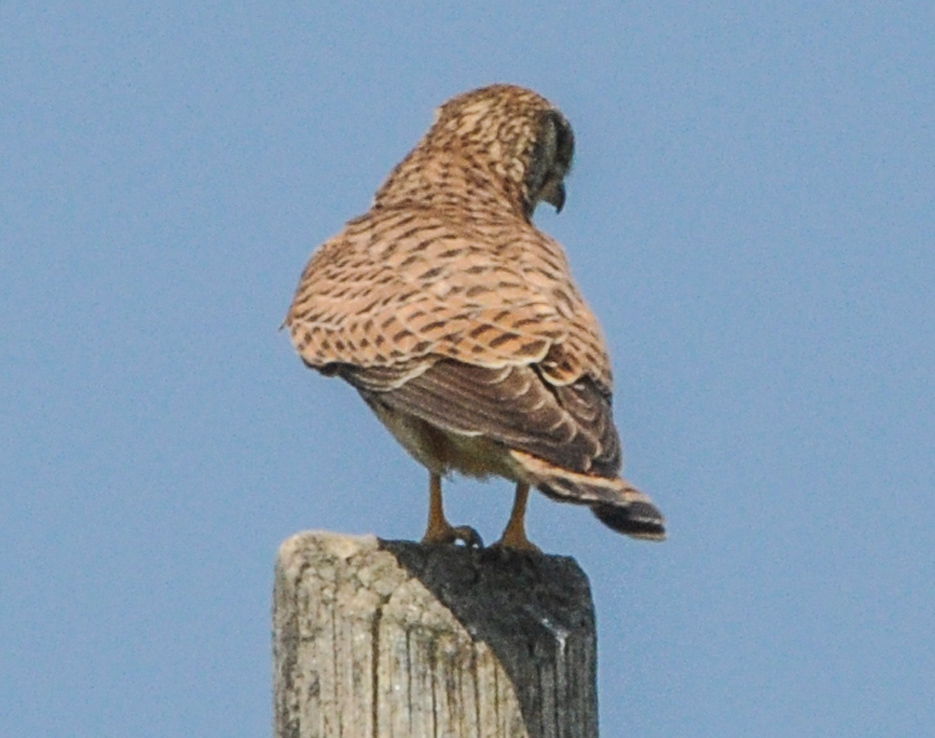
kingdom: Animalia
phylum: Chordata
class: Aves
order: Falconiformes
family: Falconidae
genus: Falco
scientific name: Falco tinnunculus
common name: Common kestrel
